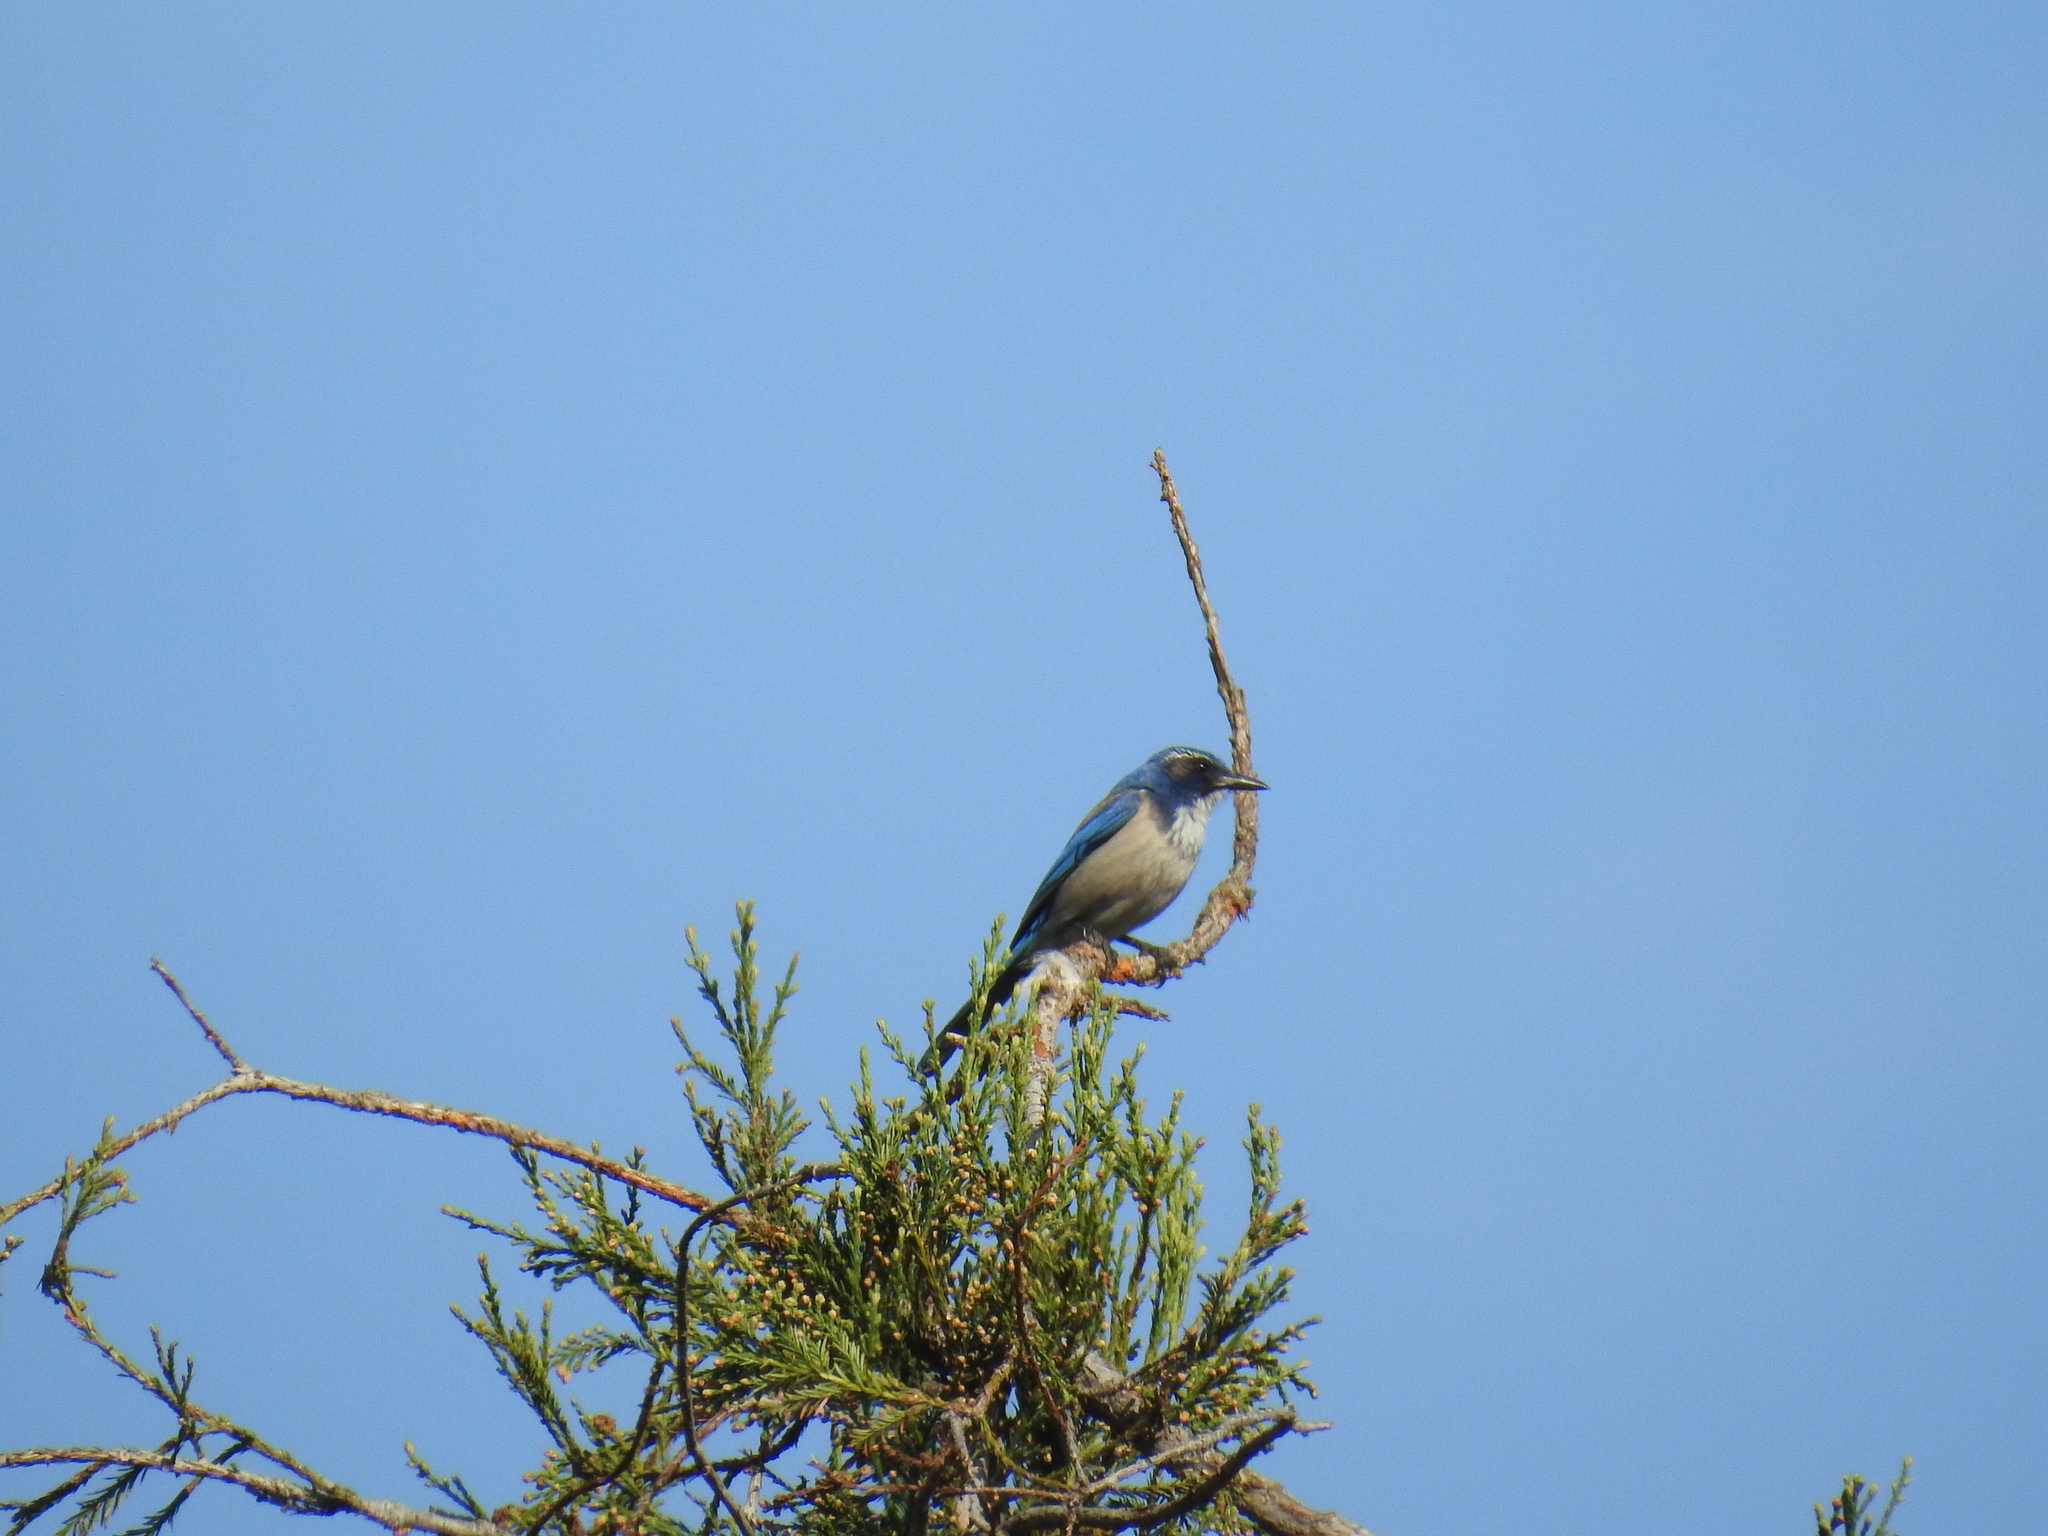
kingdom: Animalia
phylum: Chordata
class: Aves
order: Passeriformes
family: Corvidae
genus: Aphelocoma
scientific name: Aphelocoma californica
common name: California scrub-jay
